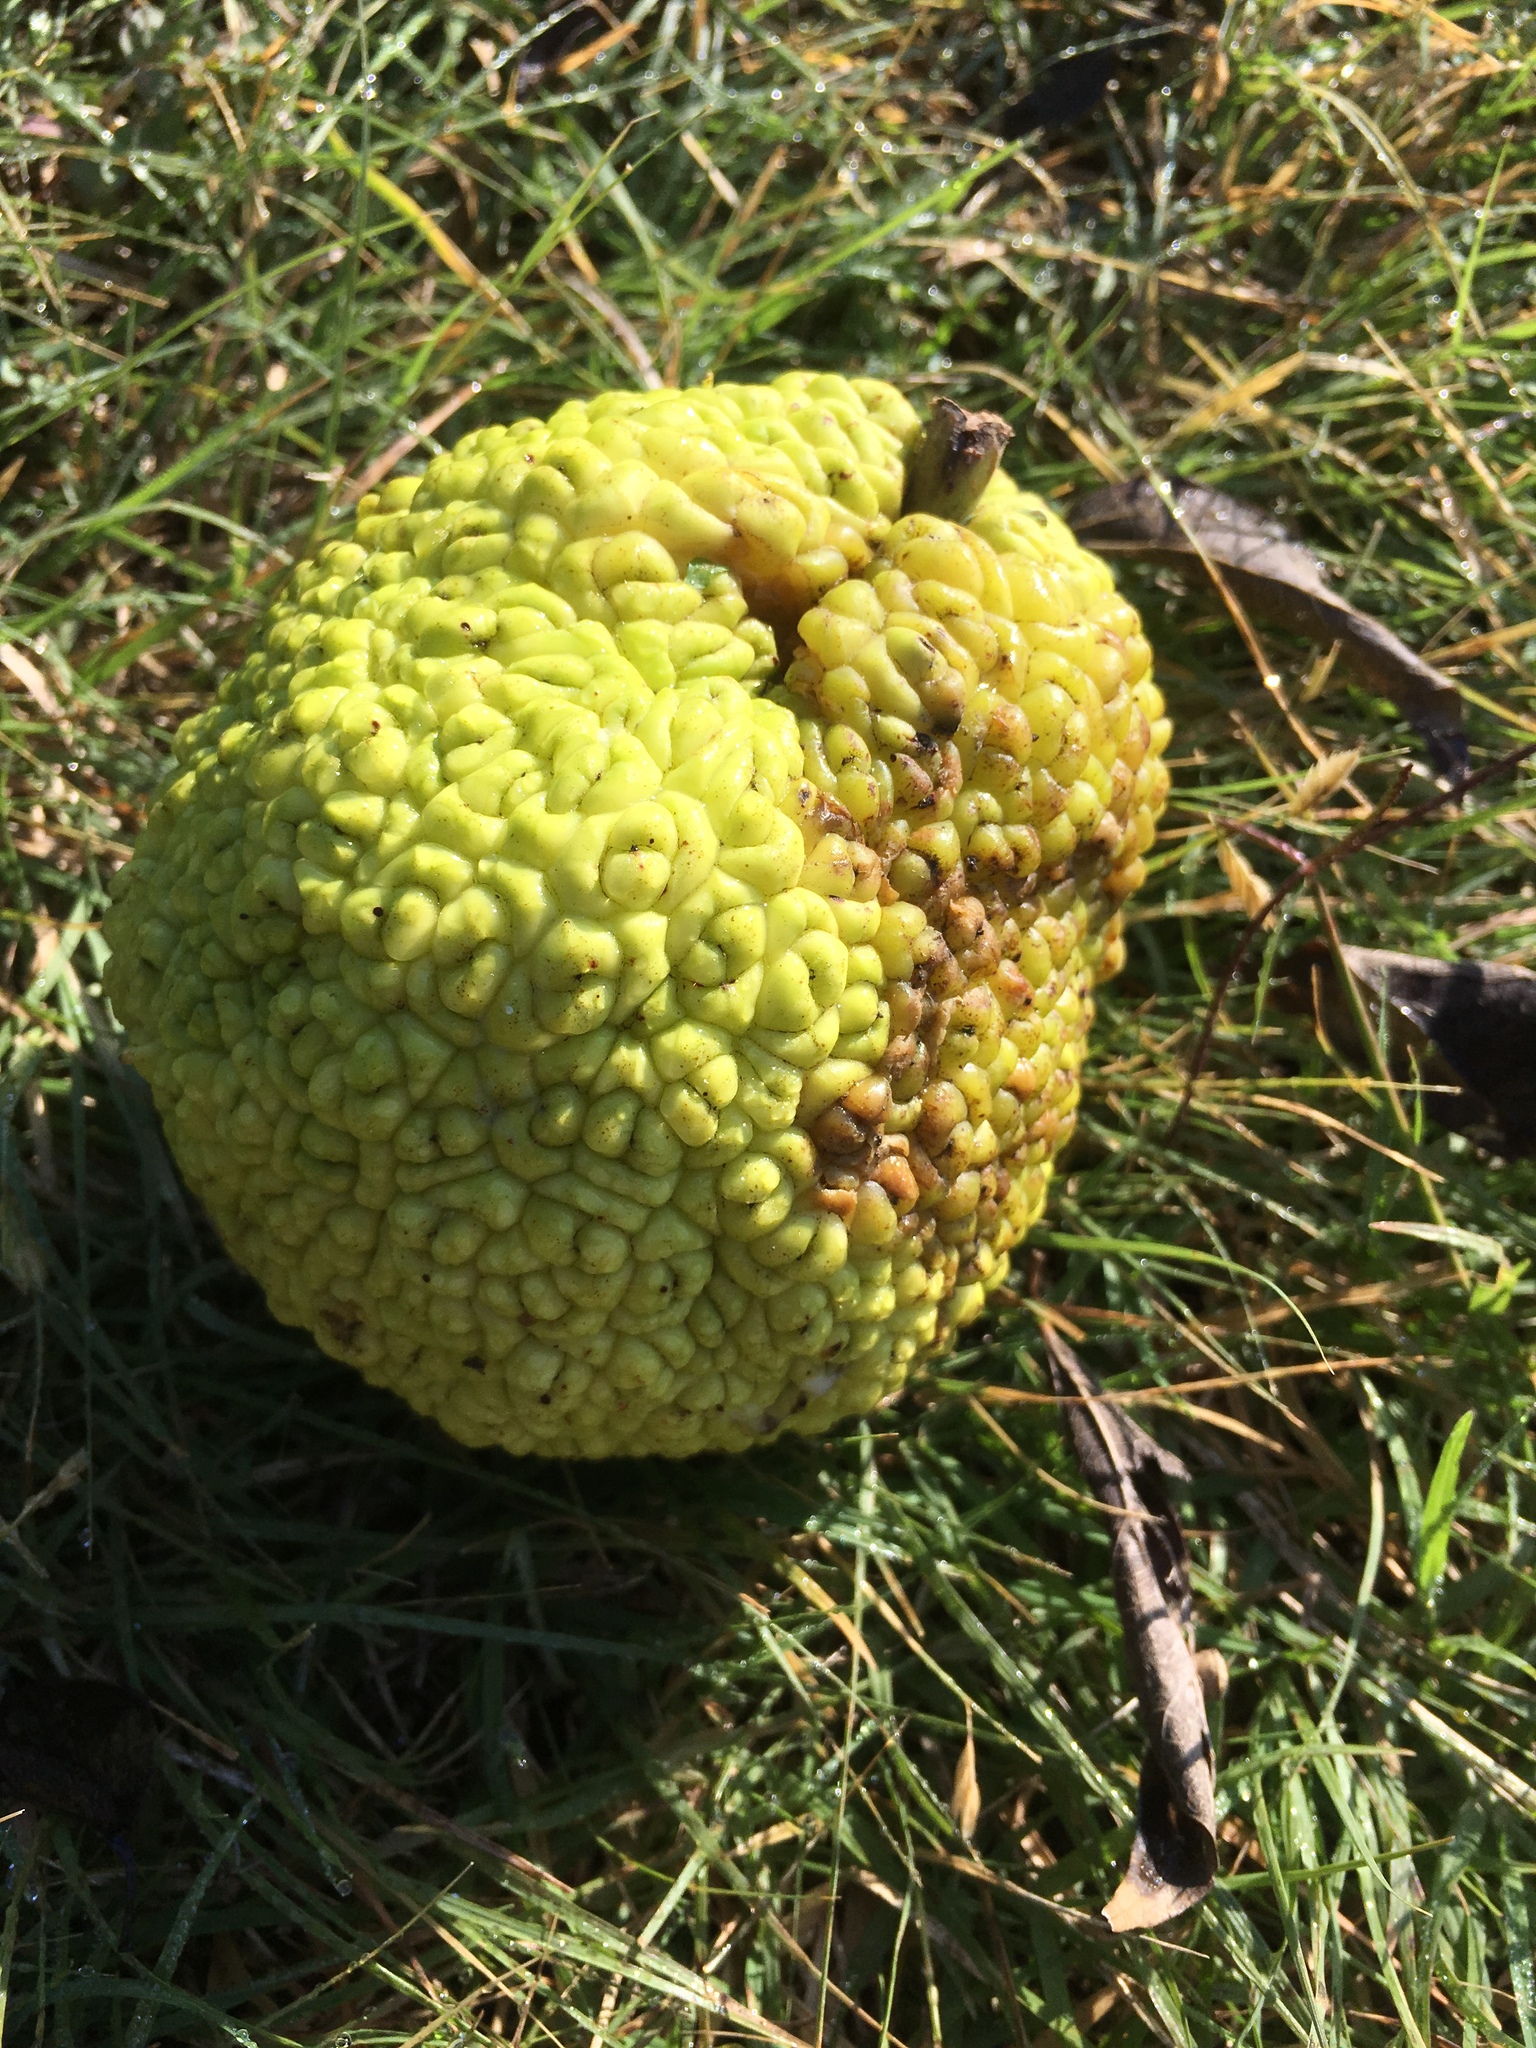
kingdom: Plantae
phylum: Tracheophyta
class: Magnoliopsida
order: Rosales
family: Moraceae
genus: Maclura
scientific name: Maclura pomifera
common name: Osage-orange
